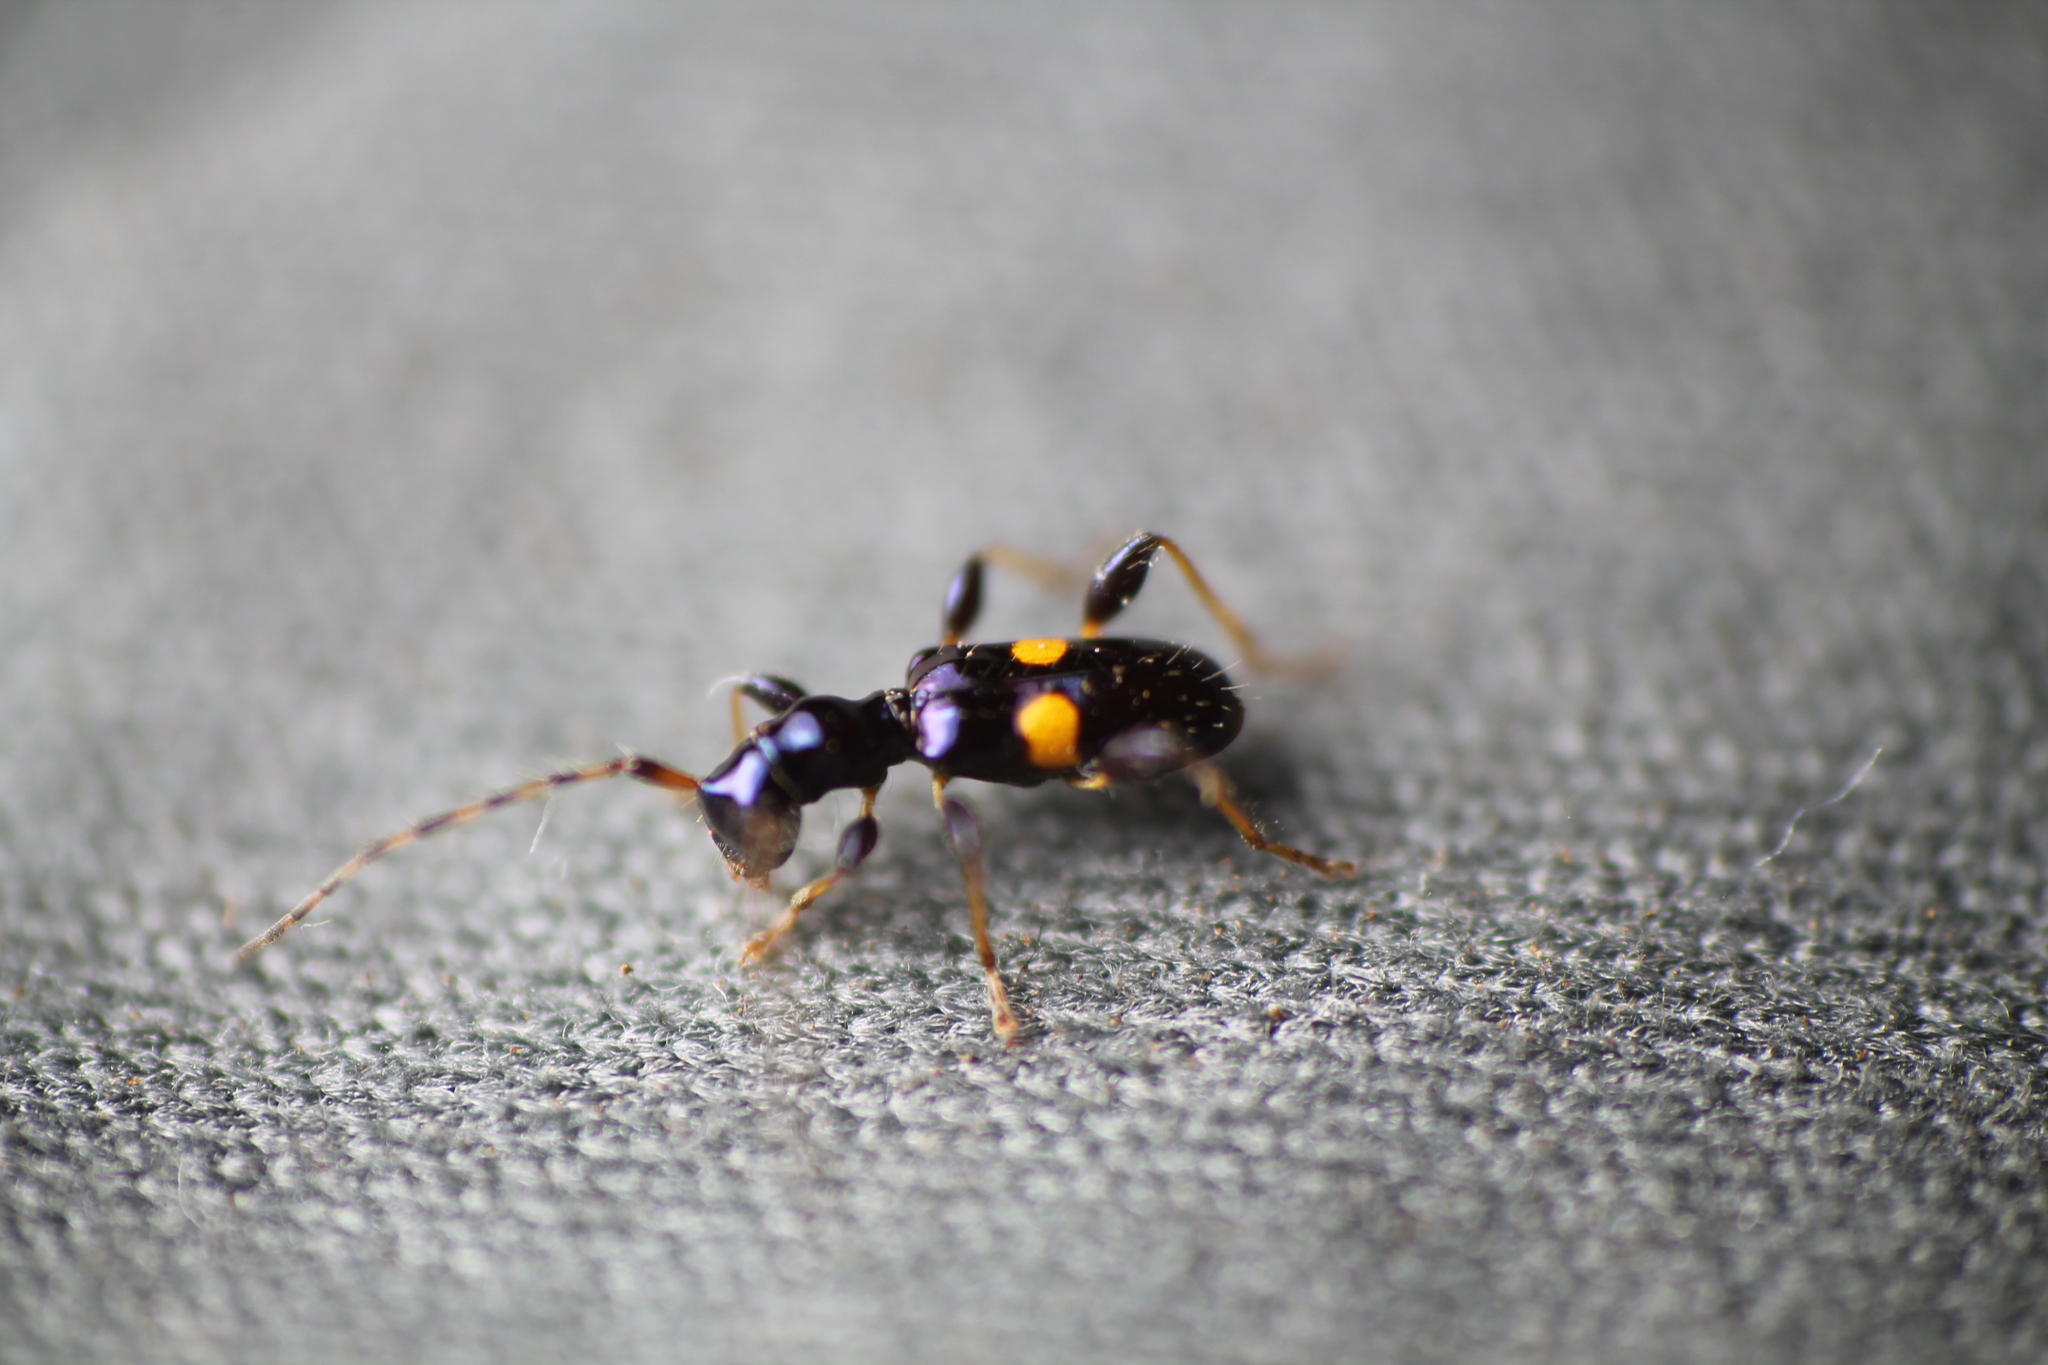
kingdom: Animalia
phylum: Arthropoda
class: Insecta
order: Coleoptera
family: Cerambycidae
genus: Zorion
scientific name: Zorion guttigerum
